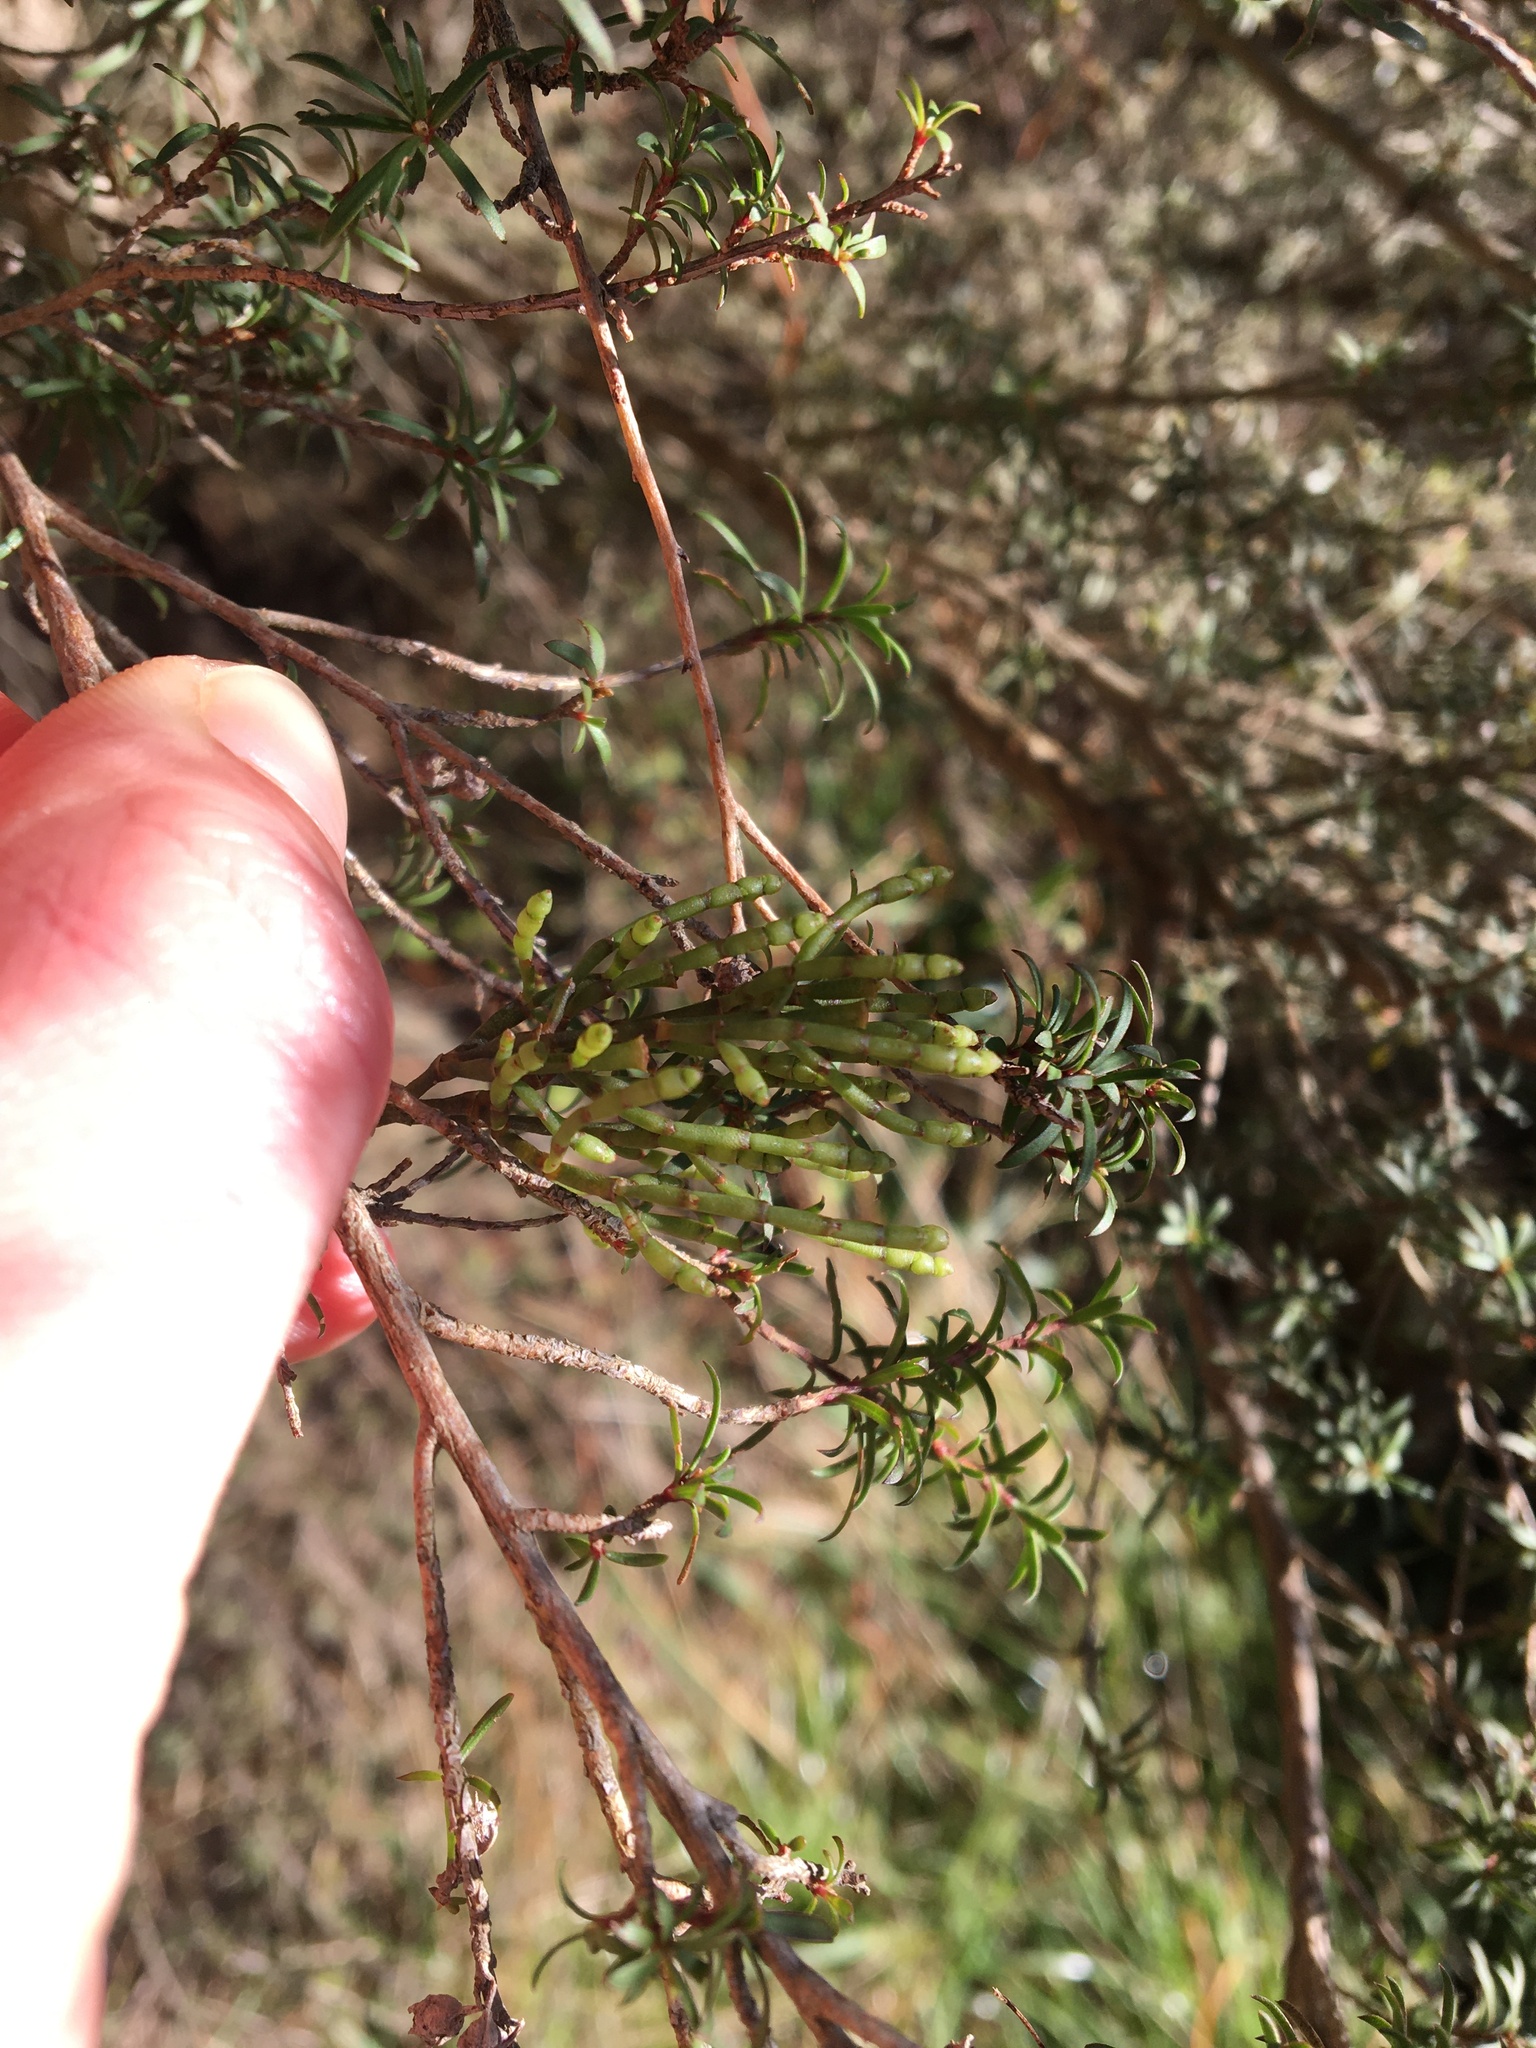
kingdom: Plantae
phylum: Tracheophyta
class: Magnoliopsida
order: Santalales
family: Viscaceae
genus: Korthalsella
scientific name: Korthalsella salicornioides
